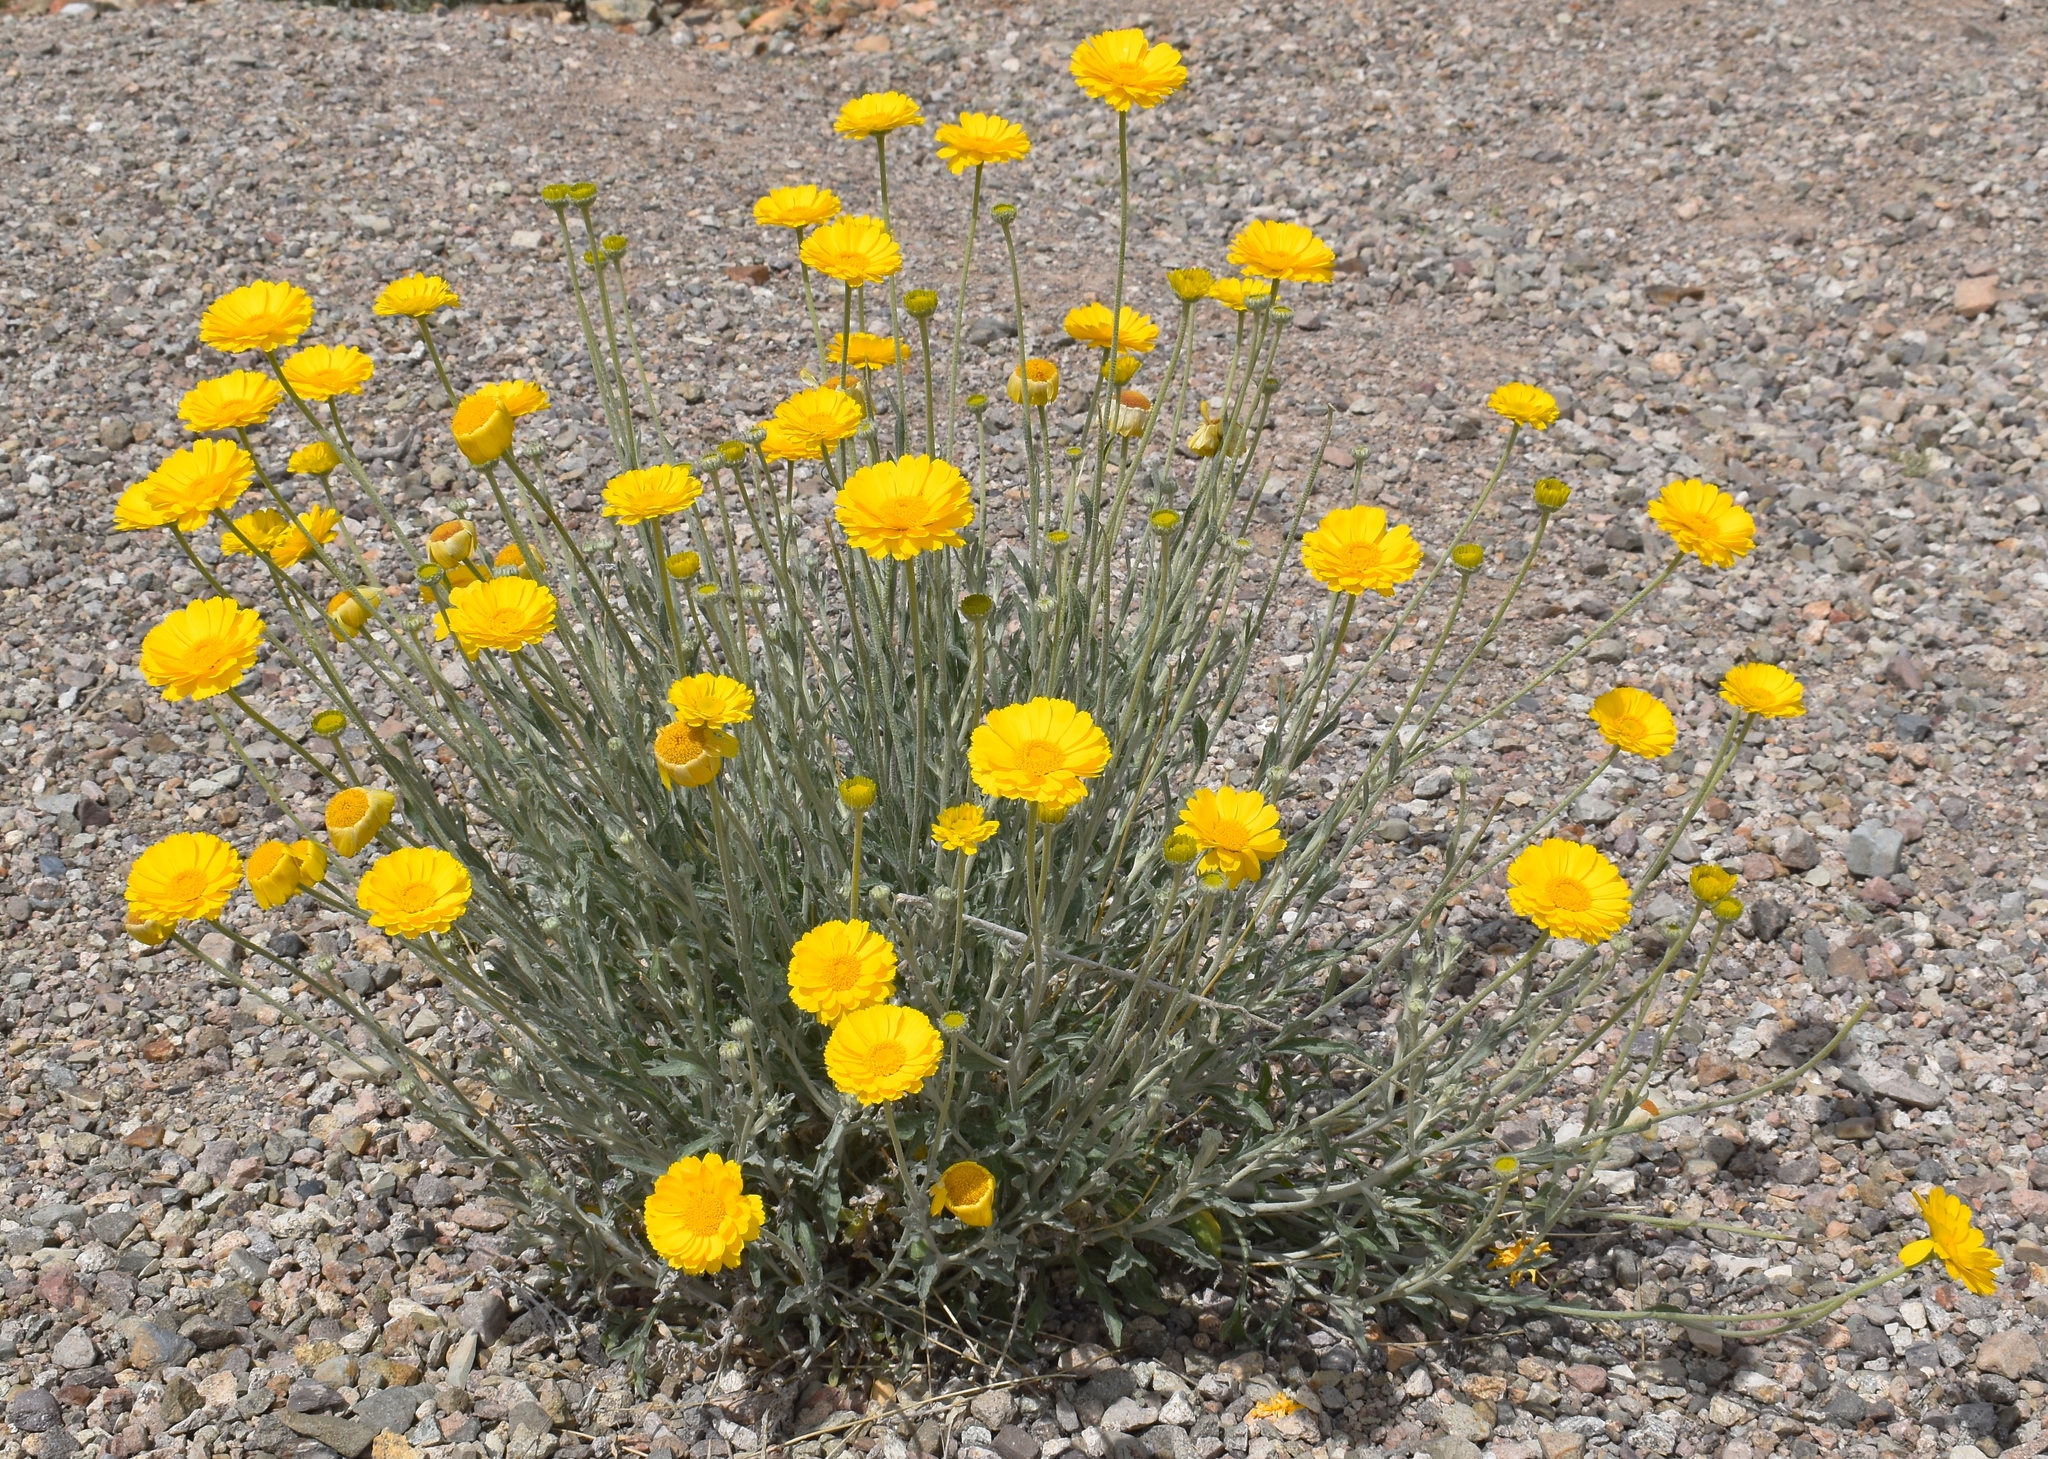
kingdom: Plantae
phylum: Tracheophyta
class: Magnoliopsida
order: Asterales
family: Asteraceae
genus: Baileya
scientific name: Baileya multiradiata
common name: Desert-marigold
